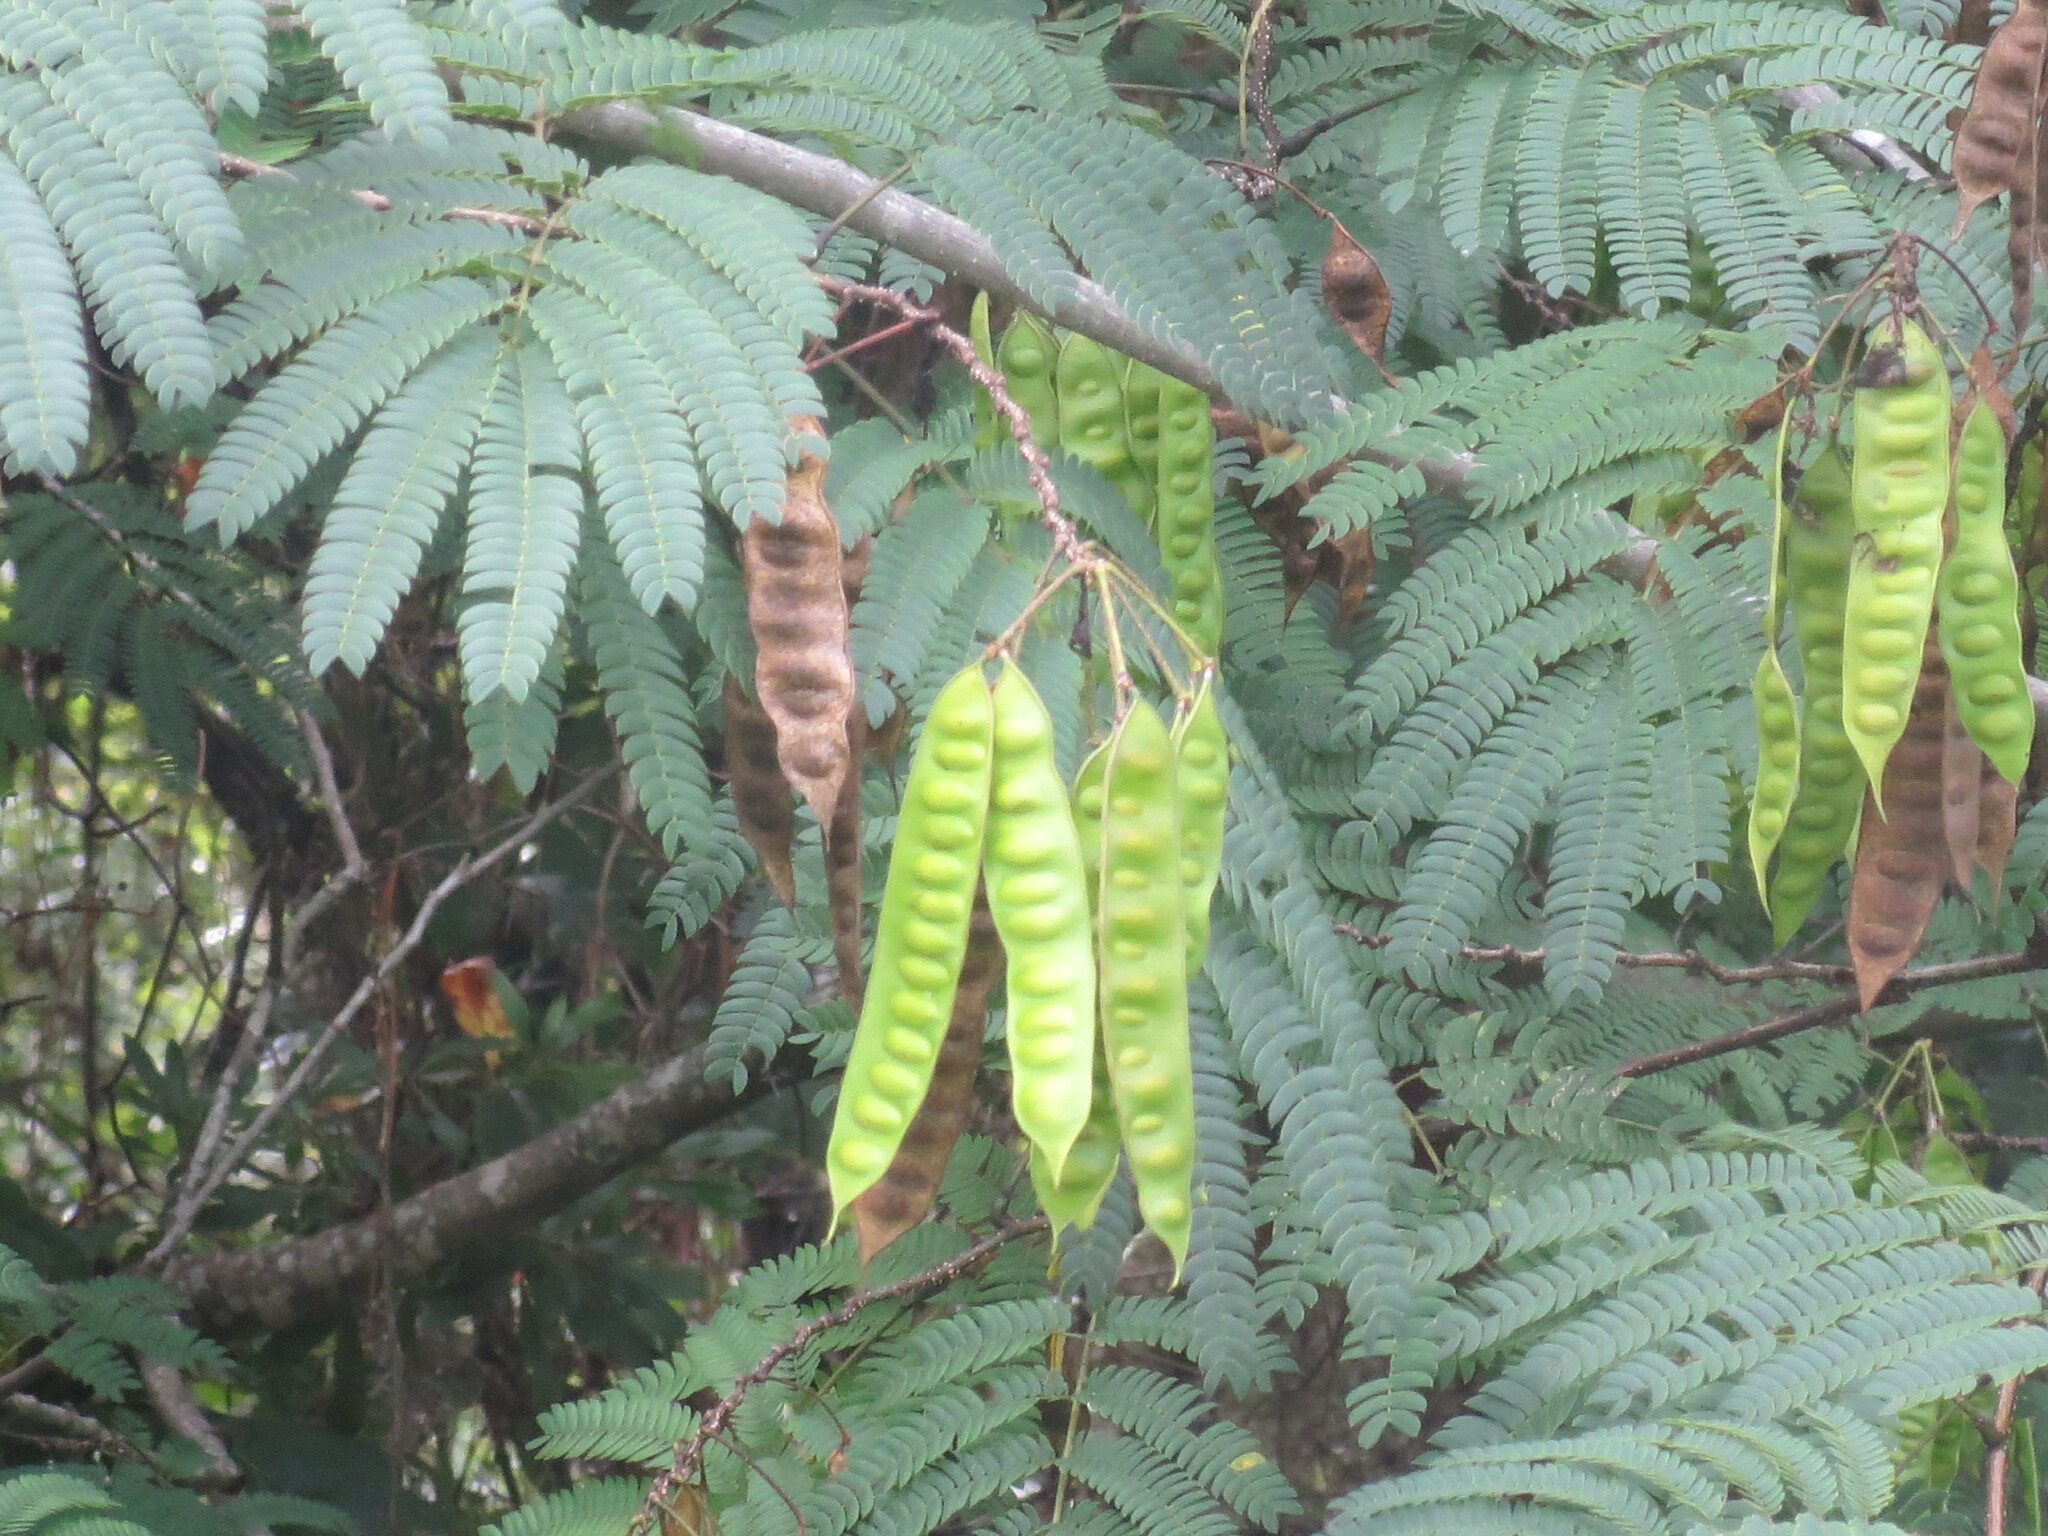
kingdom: Plantae
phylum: Tracheophyta
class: Magnoliopsida
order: Fabales
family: Fabaceae
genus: Albizia
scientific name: Albizia julibrissin
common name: Silktree
